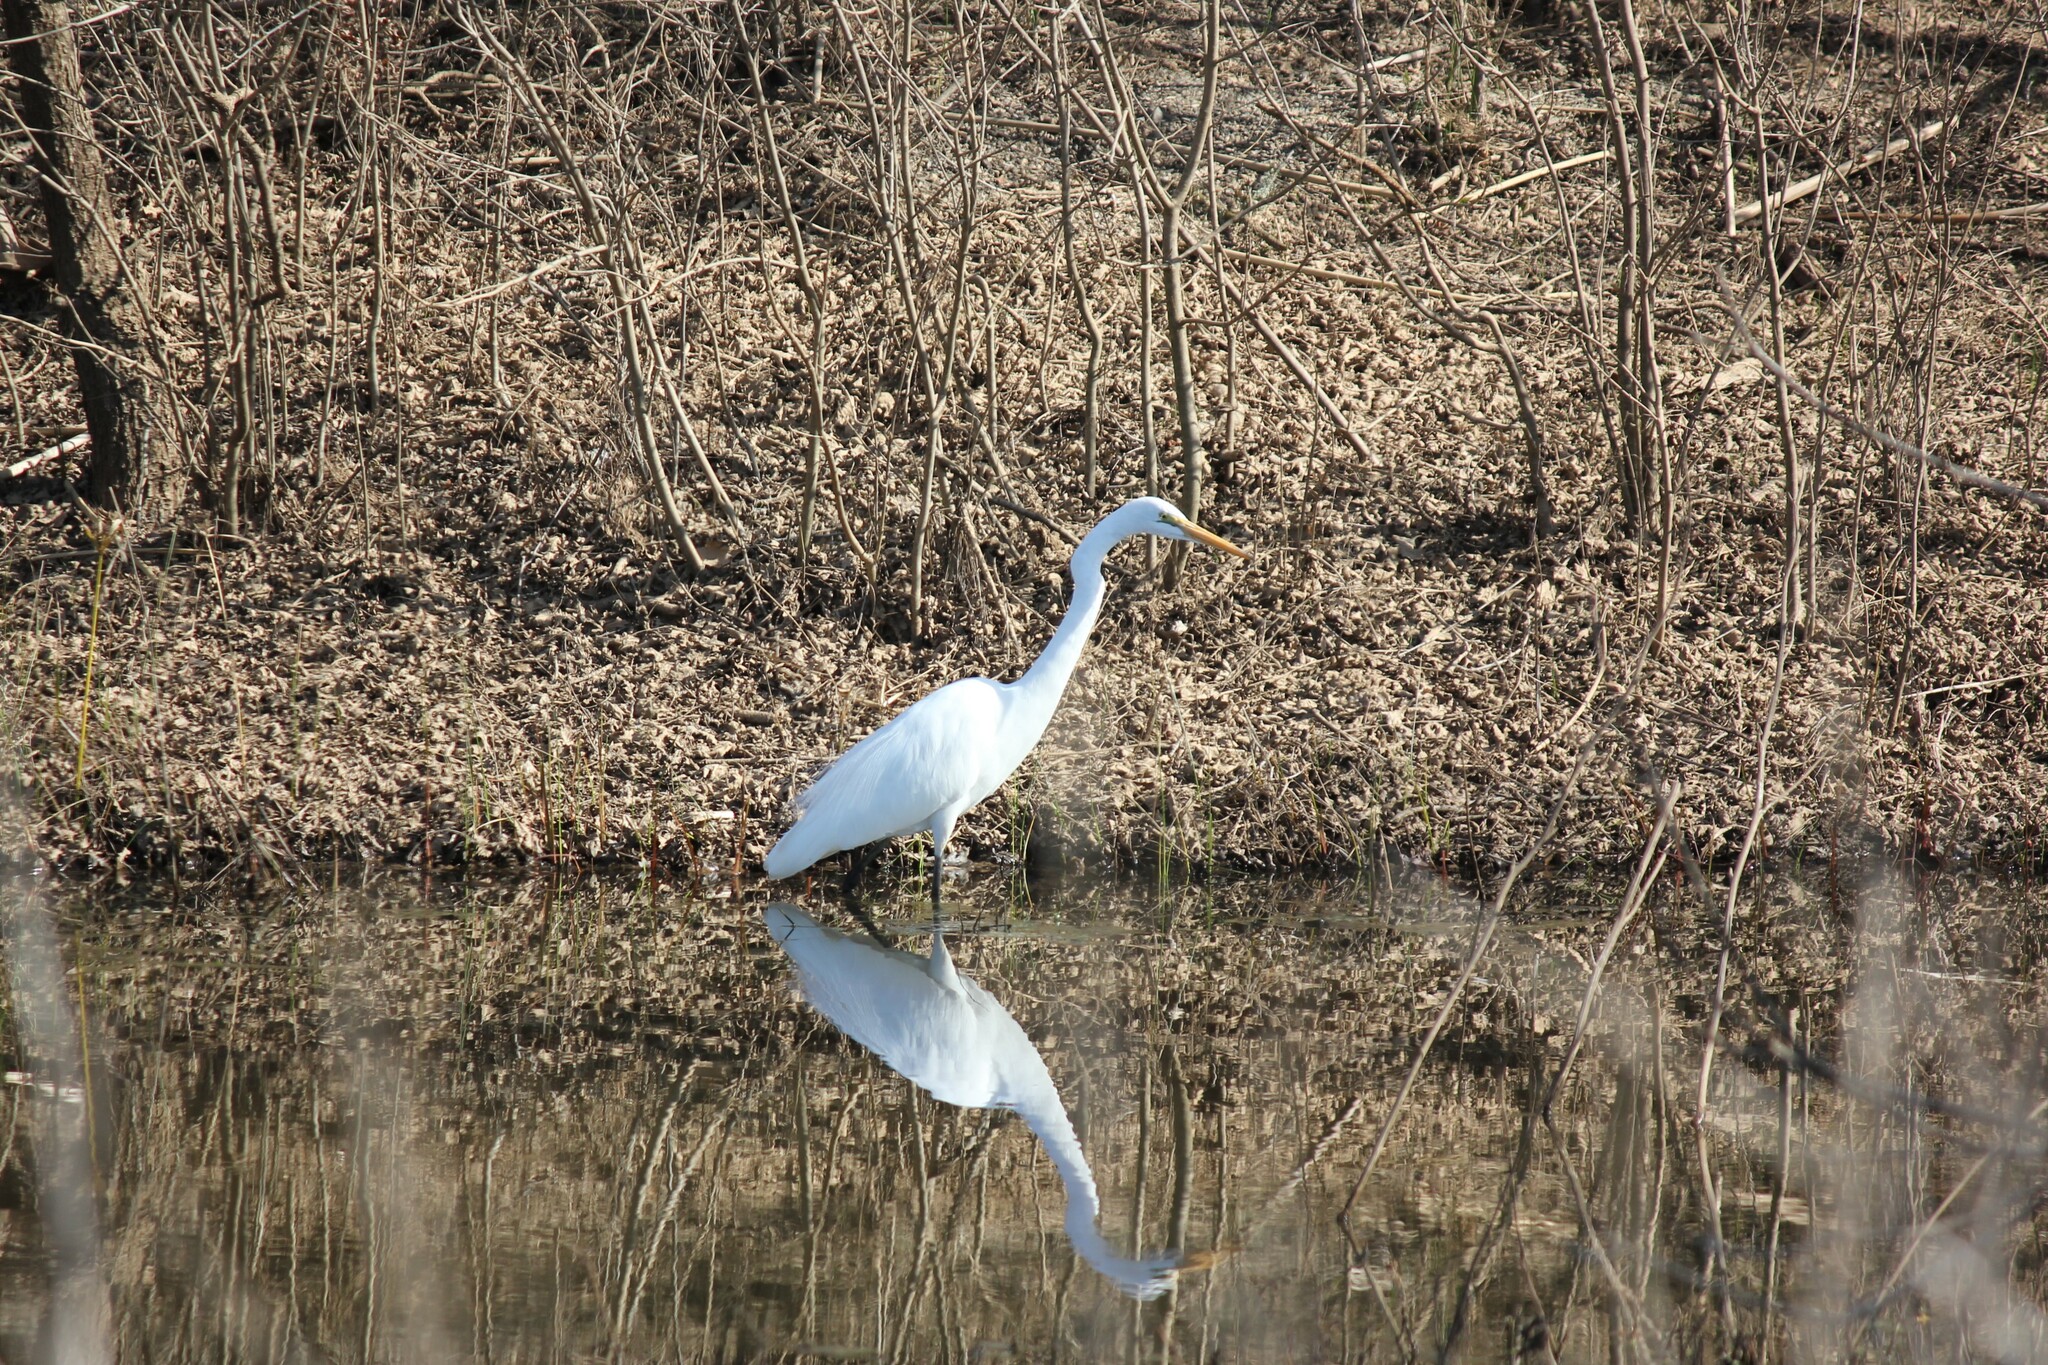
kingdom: Animalia
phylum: Chordata
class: Aves
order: Pelecaniformes
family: Ardeidae
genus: Ardea
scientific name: Ardea alba
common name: Great egret
